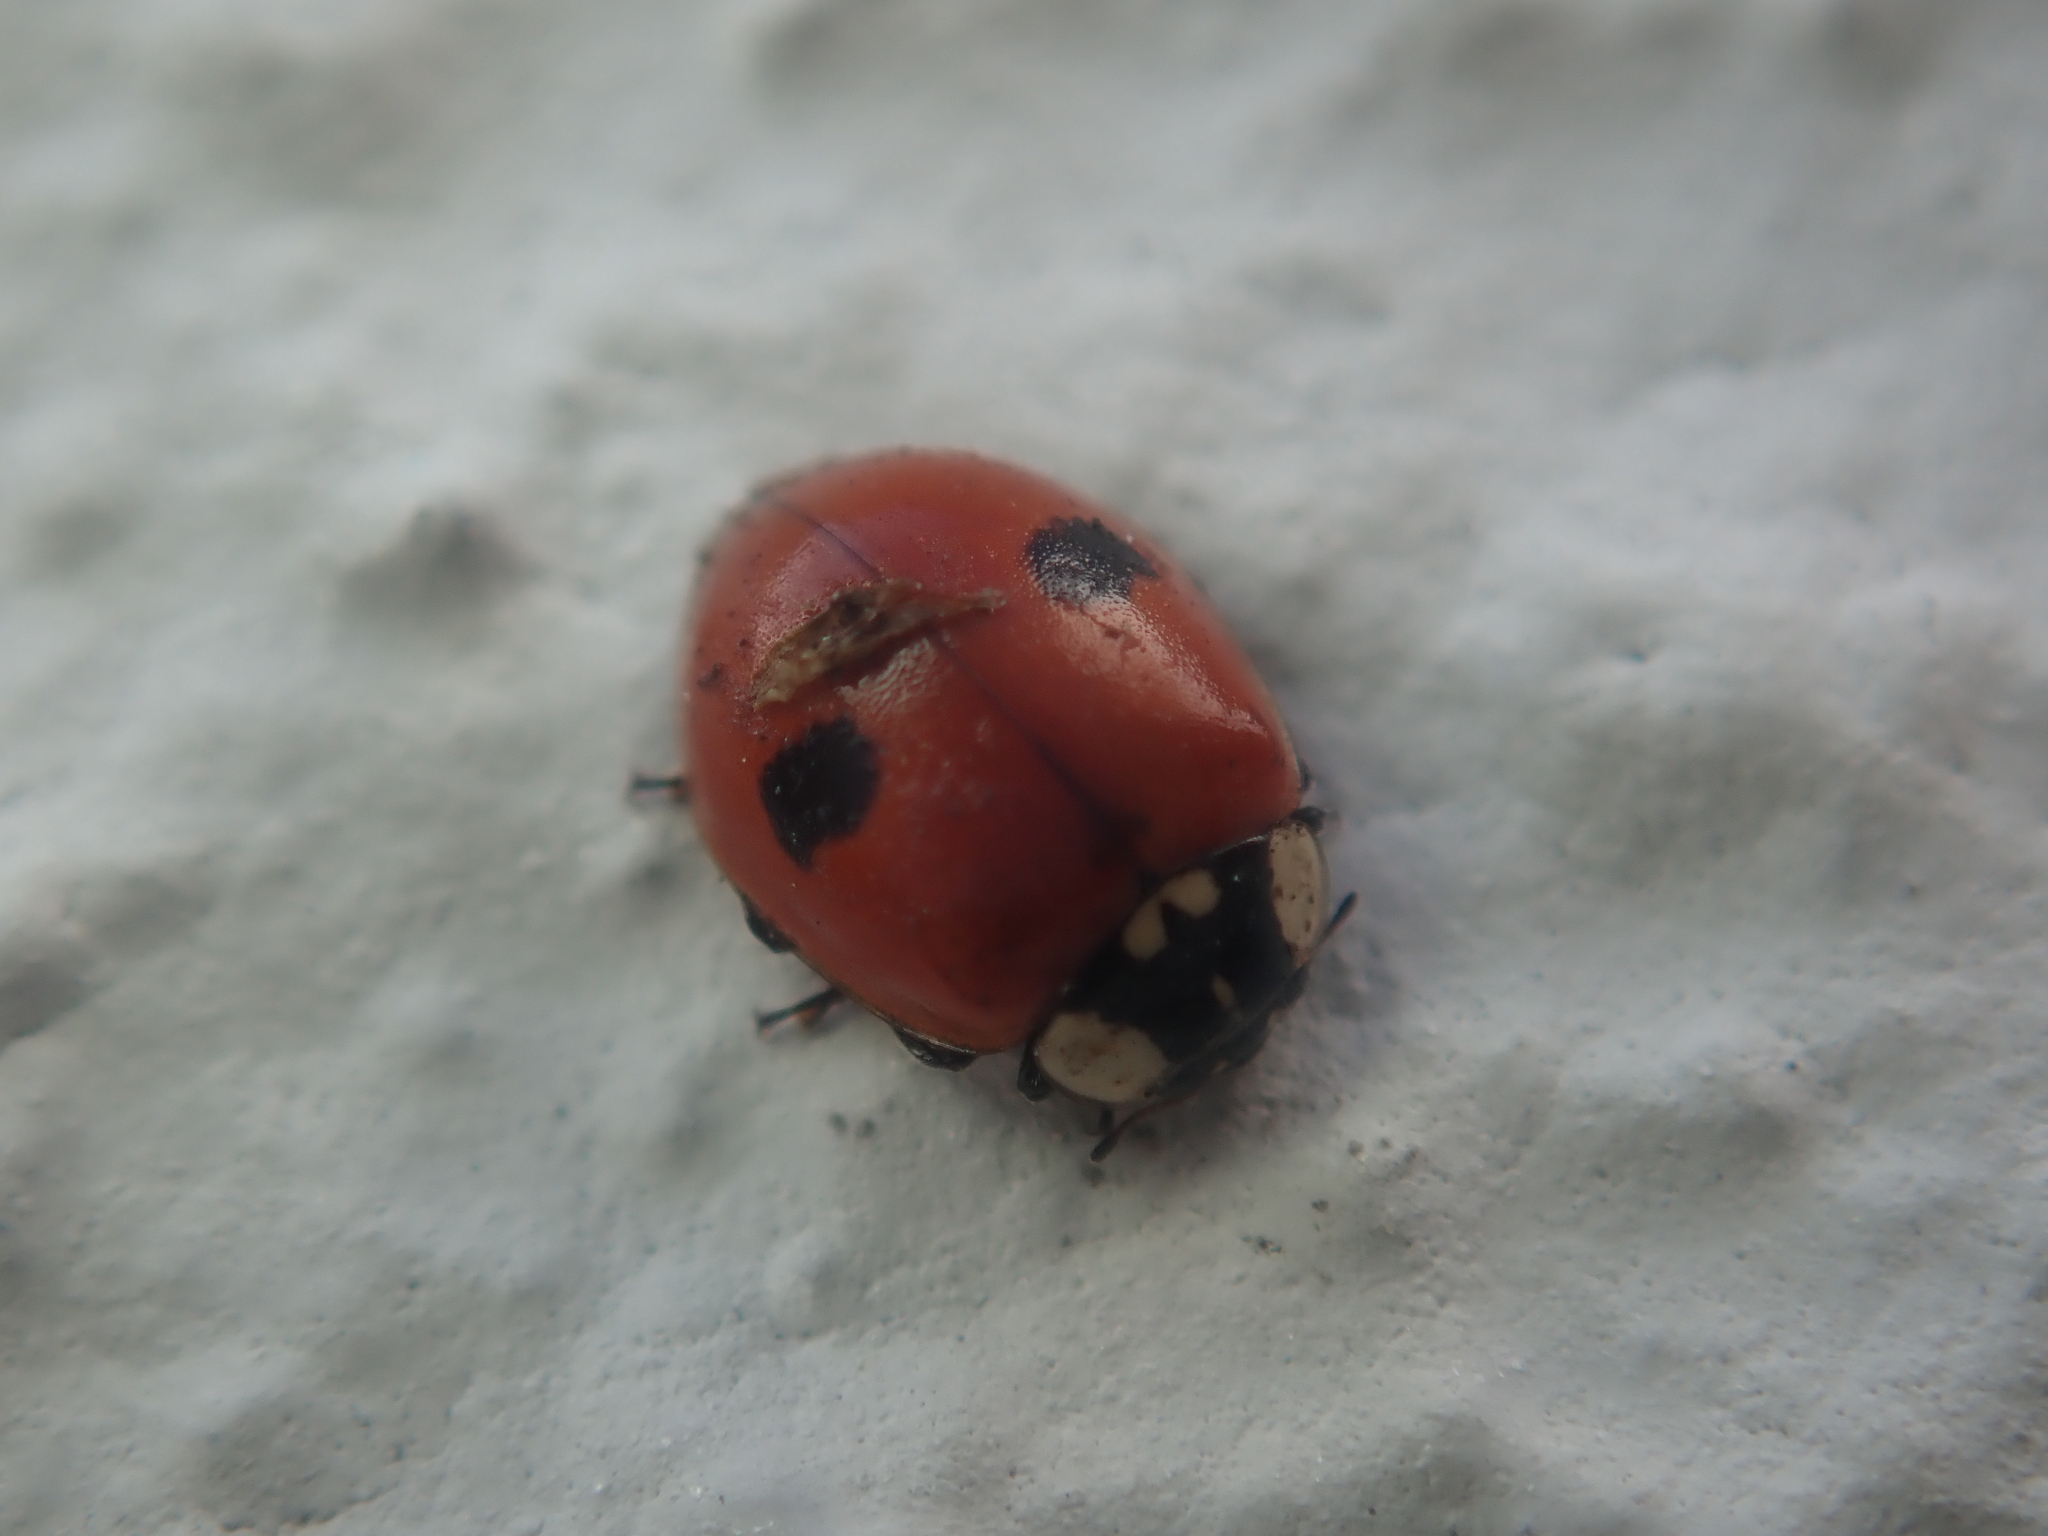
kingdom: Animalia
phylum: Arthropoda
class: Insecta
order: Coleoptera
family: Coccinellidae
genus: Adalia
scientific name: Adalia bipunctata
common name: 2-spot ladybird
